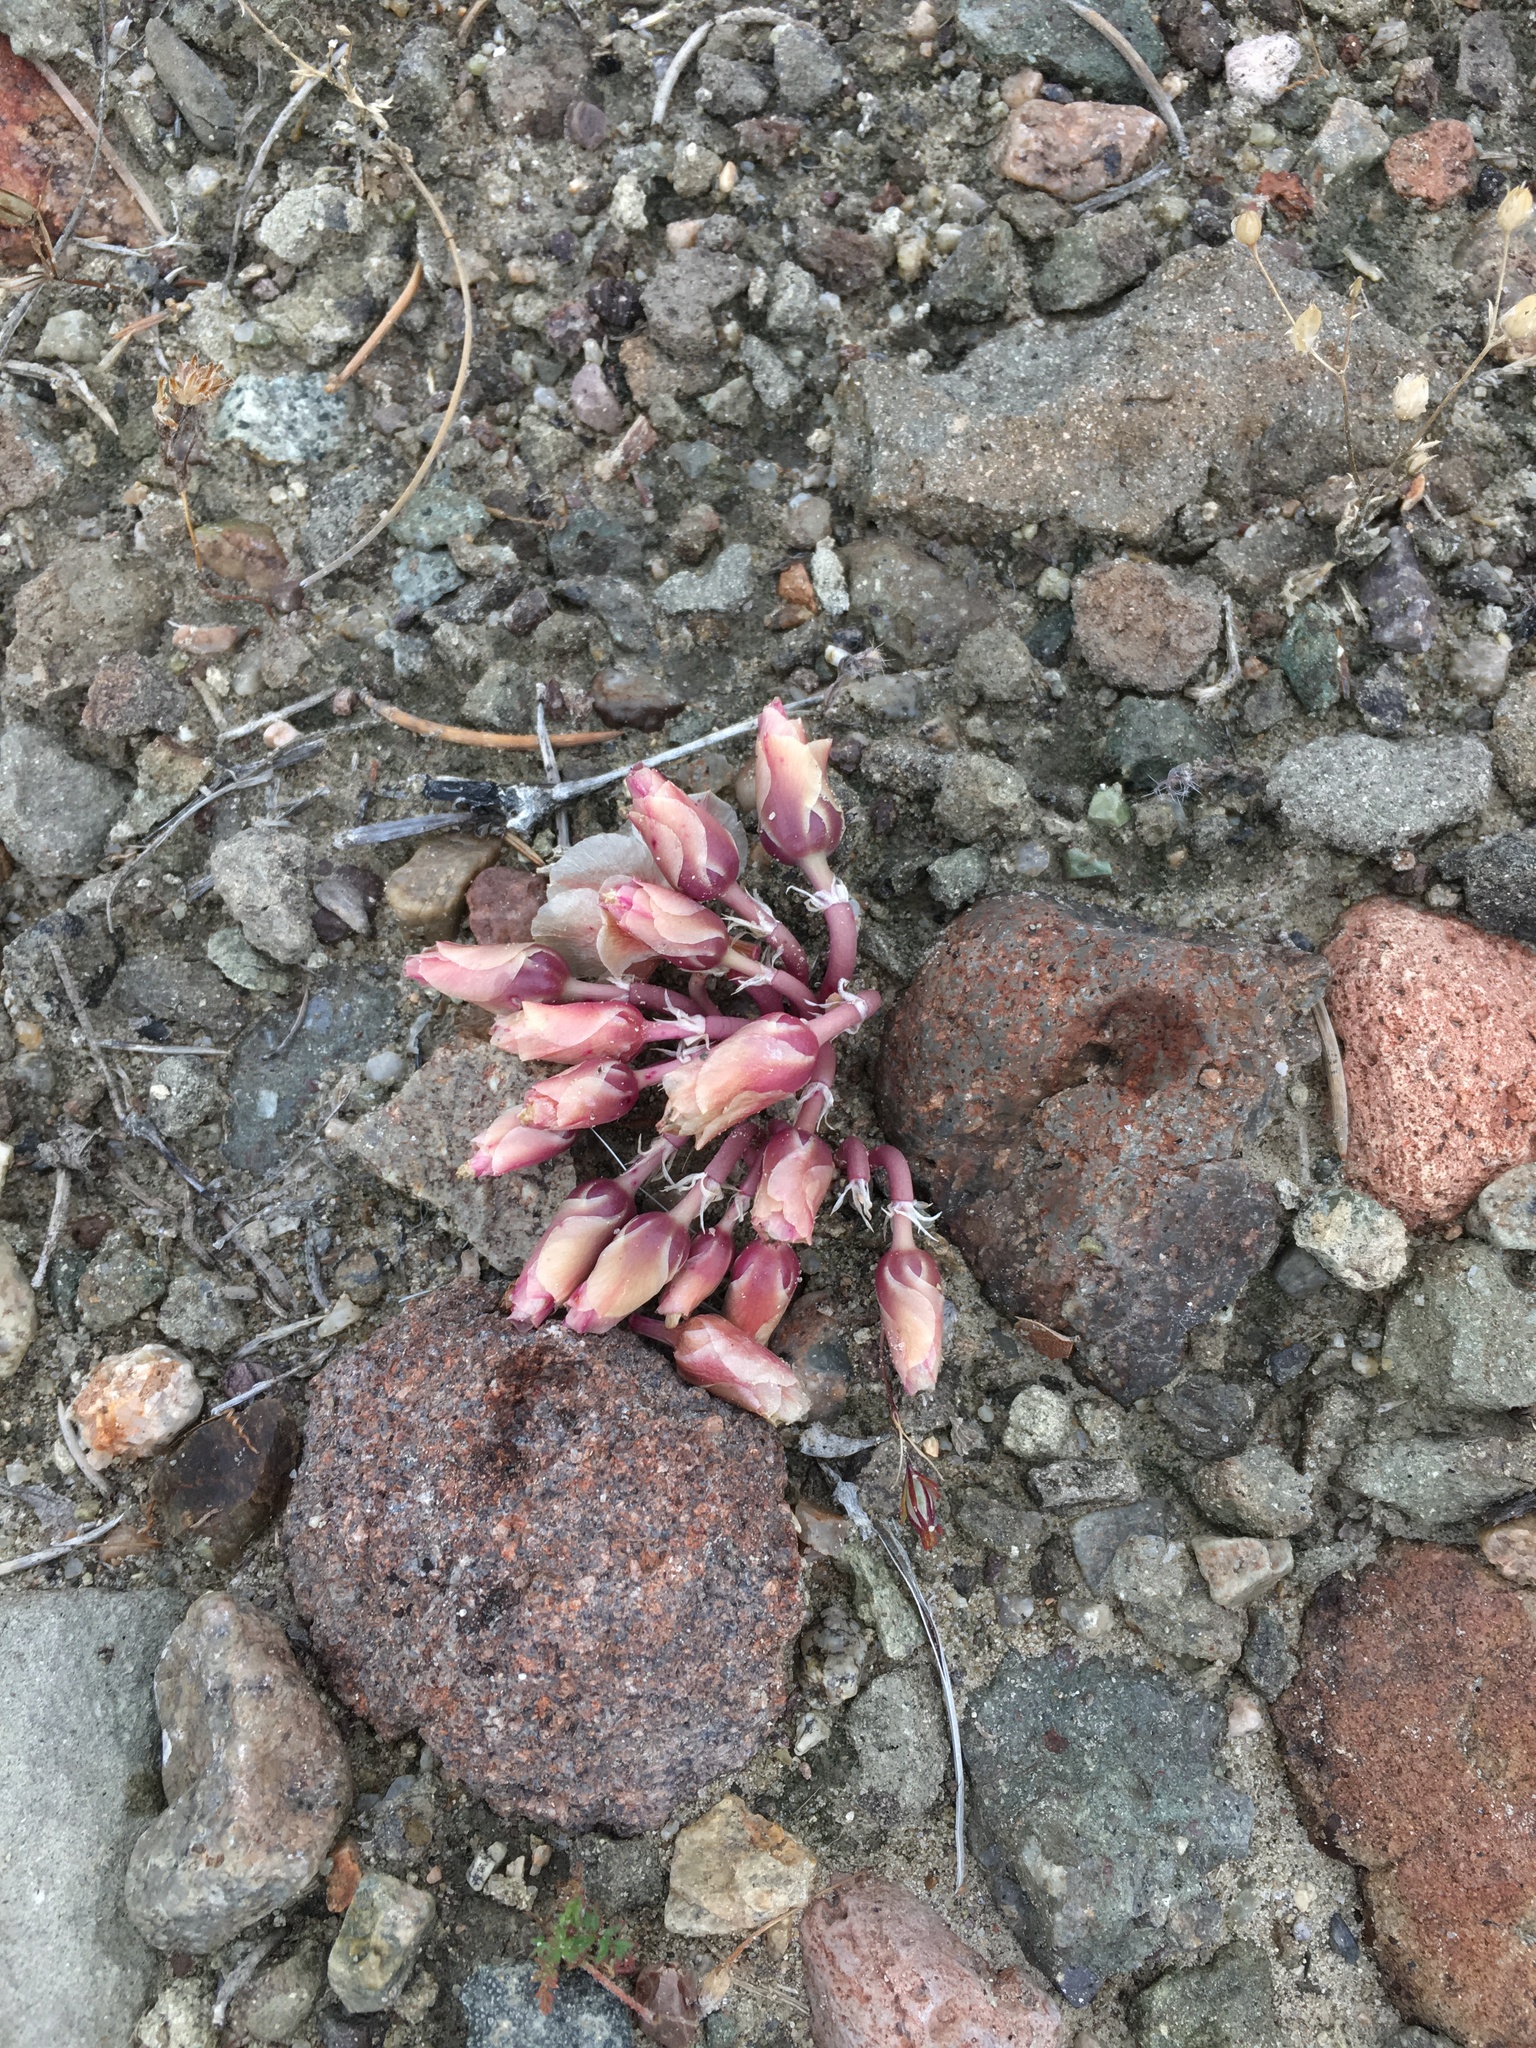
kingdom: Plantae
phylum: Tracheophyta
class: Magnoliopsida
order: Caryophyllales
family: Montiaceae
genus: Lewisia
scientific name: Lewisia rediviva
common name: Bitter-root
